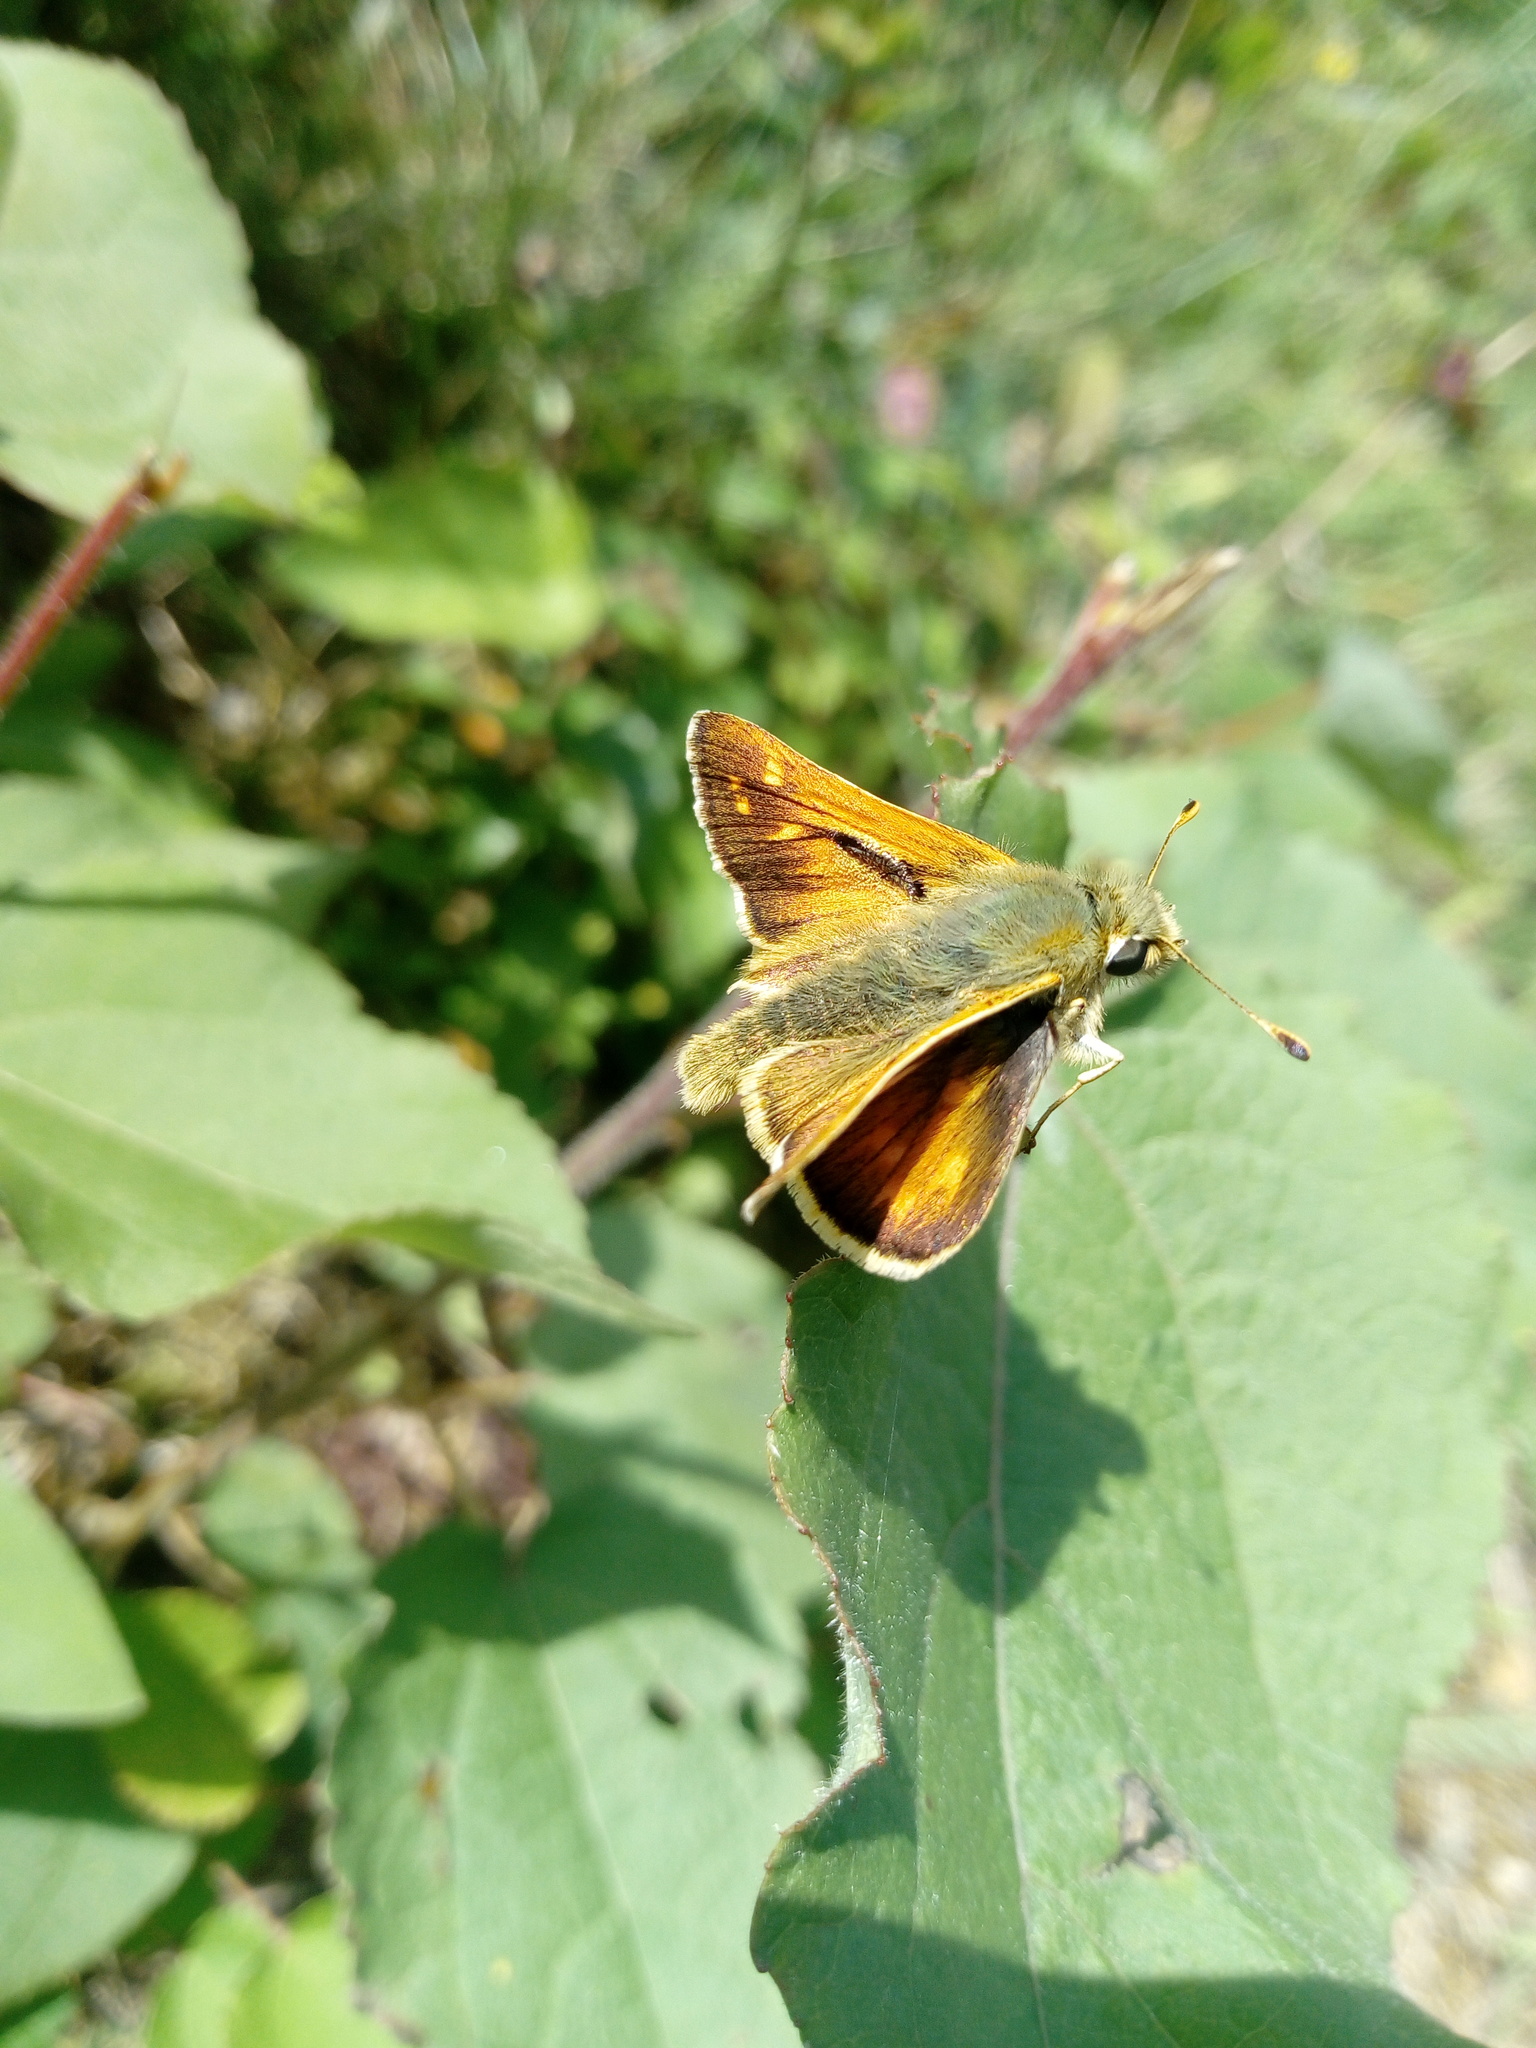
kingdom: Animalia
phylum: Arthropoda
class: Insecta
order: Lepidoptera
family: Hesperiidae
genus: Hesperia
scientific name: Hesperia comma
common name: Common branded skipper
